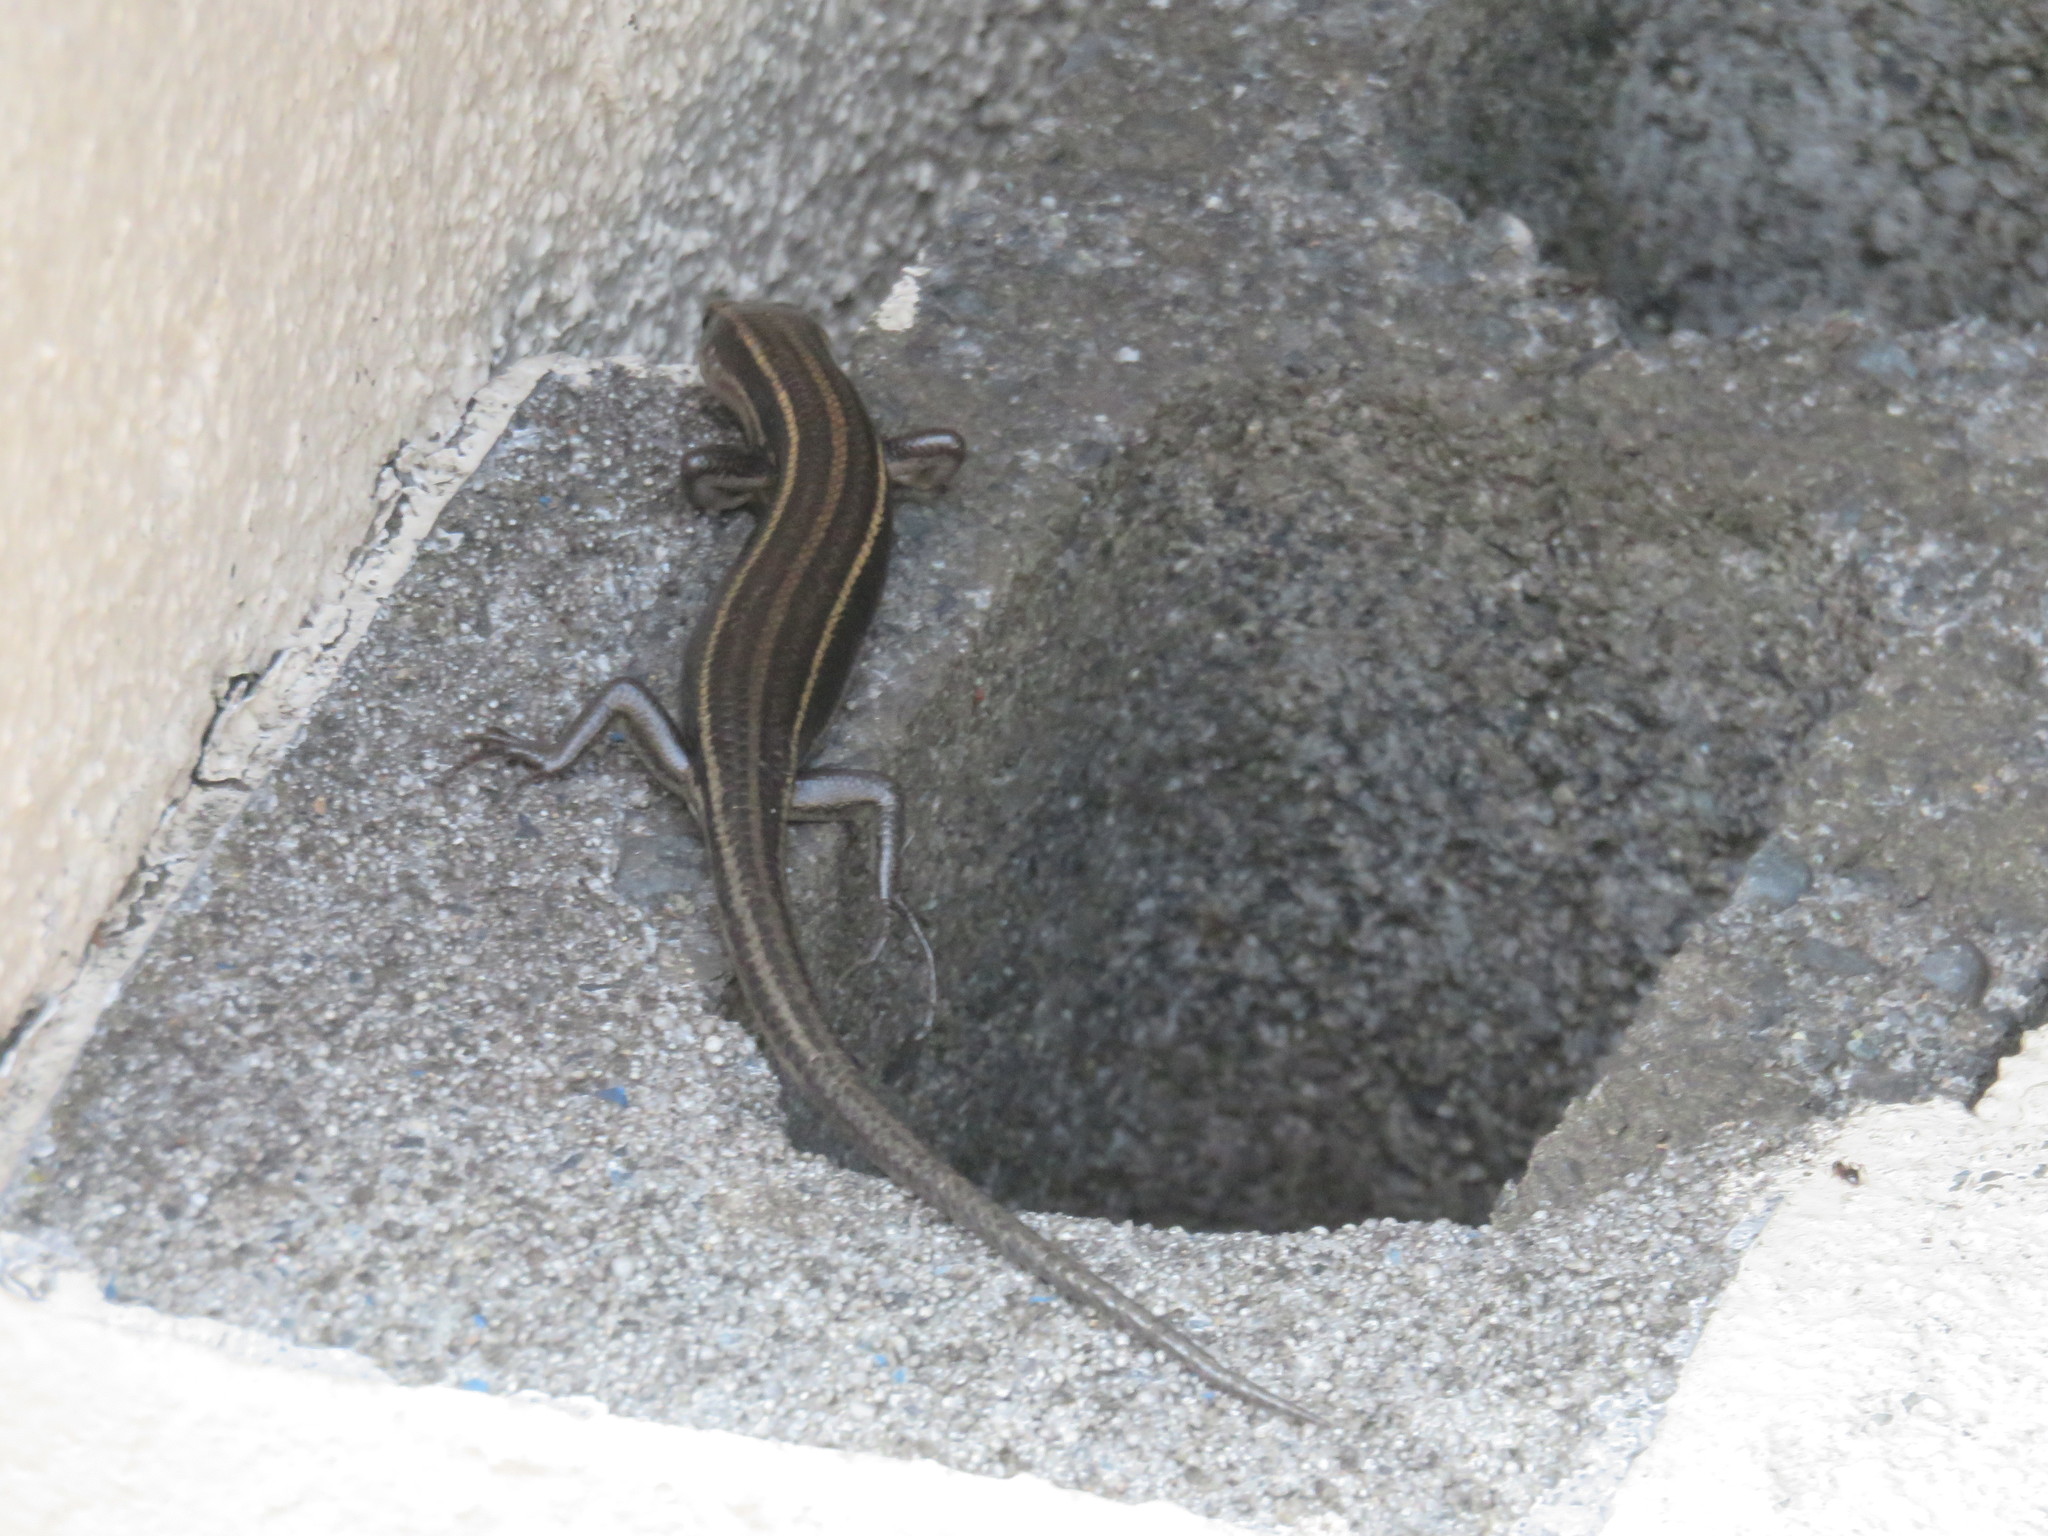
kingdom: Animalia
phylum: Chordata
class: Squamata
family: Scincidae
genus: Plestiodon
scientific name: Plestiodon finitimus
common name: Far eastern skink
